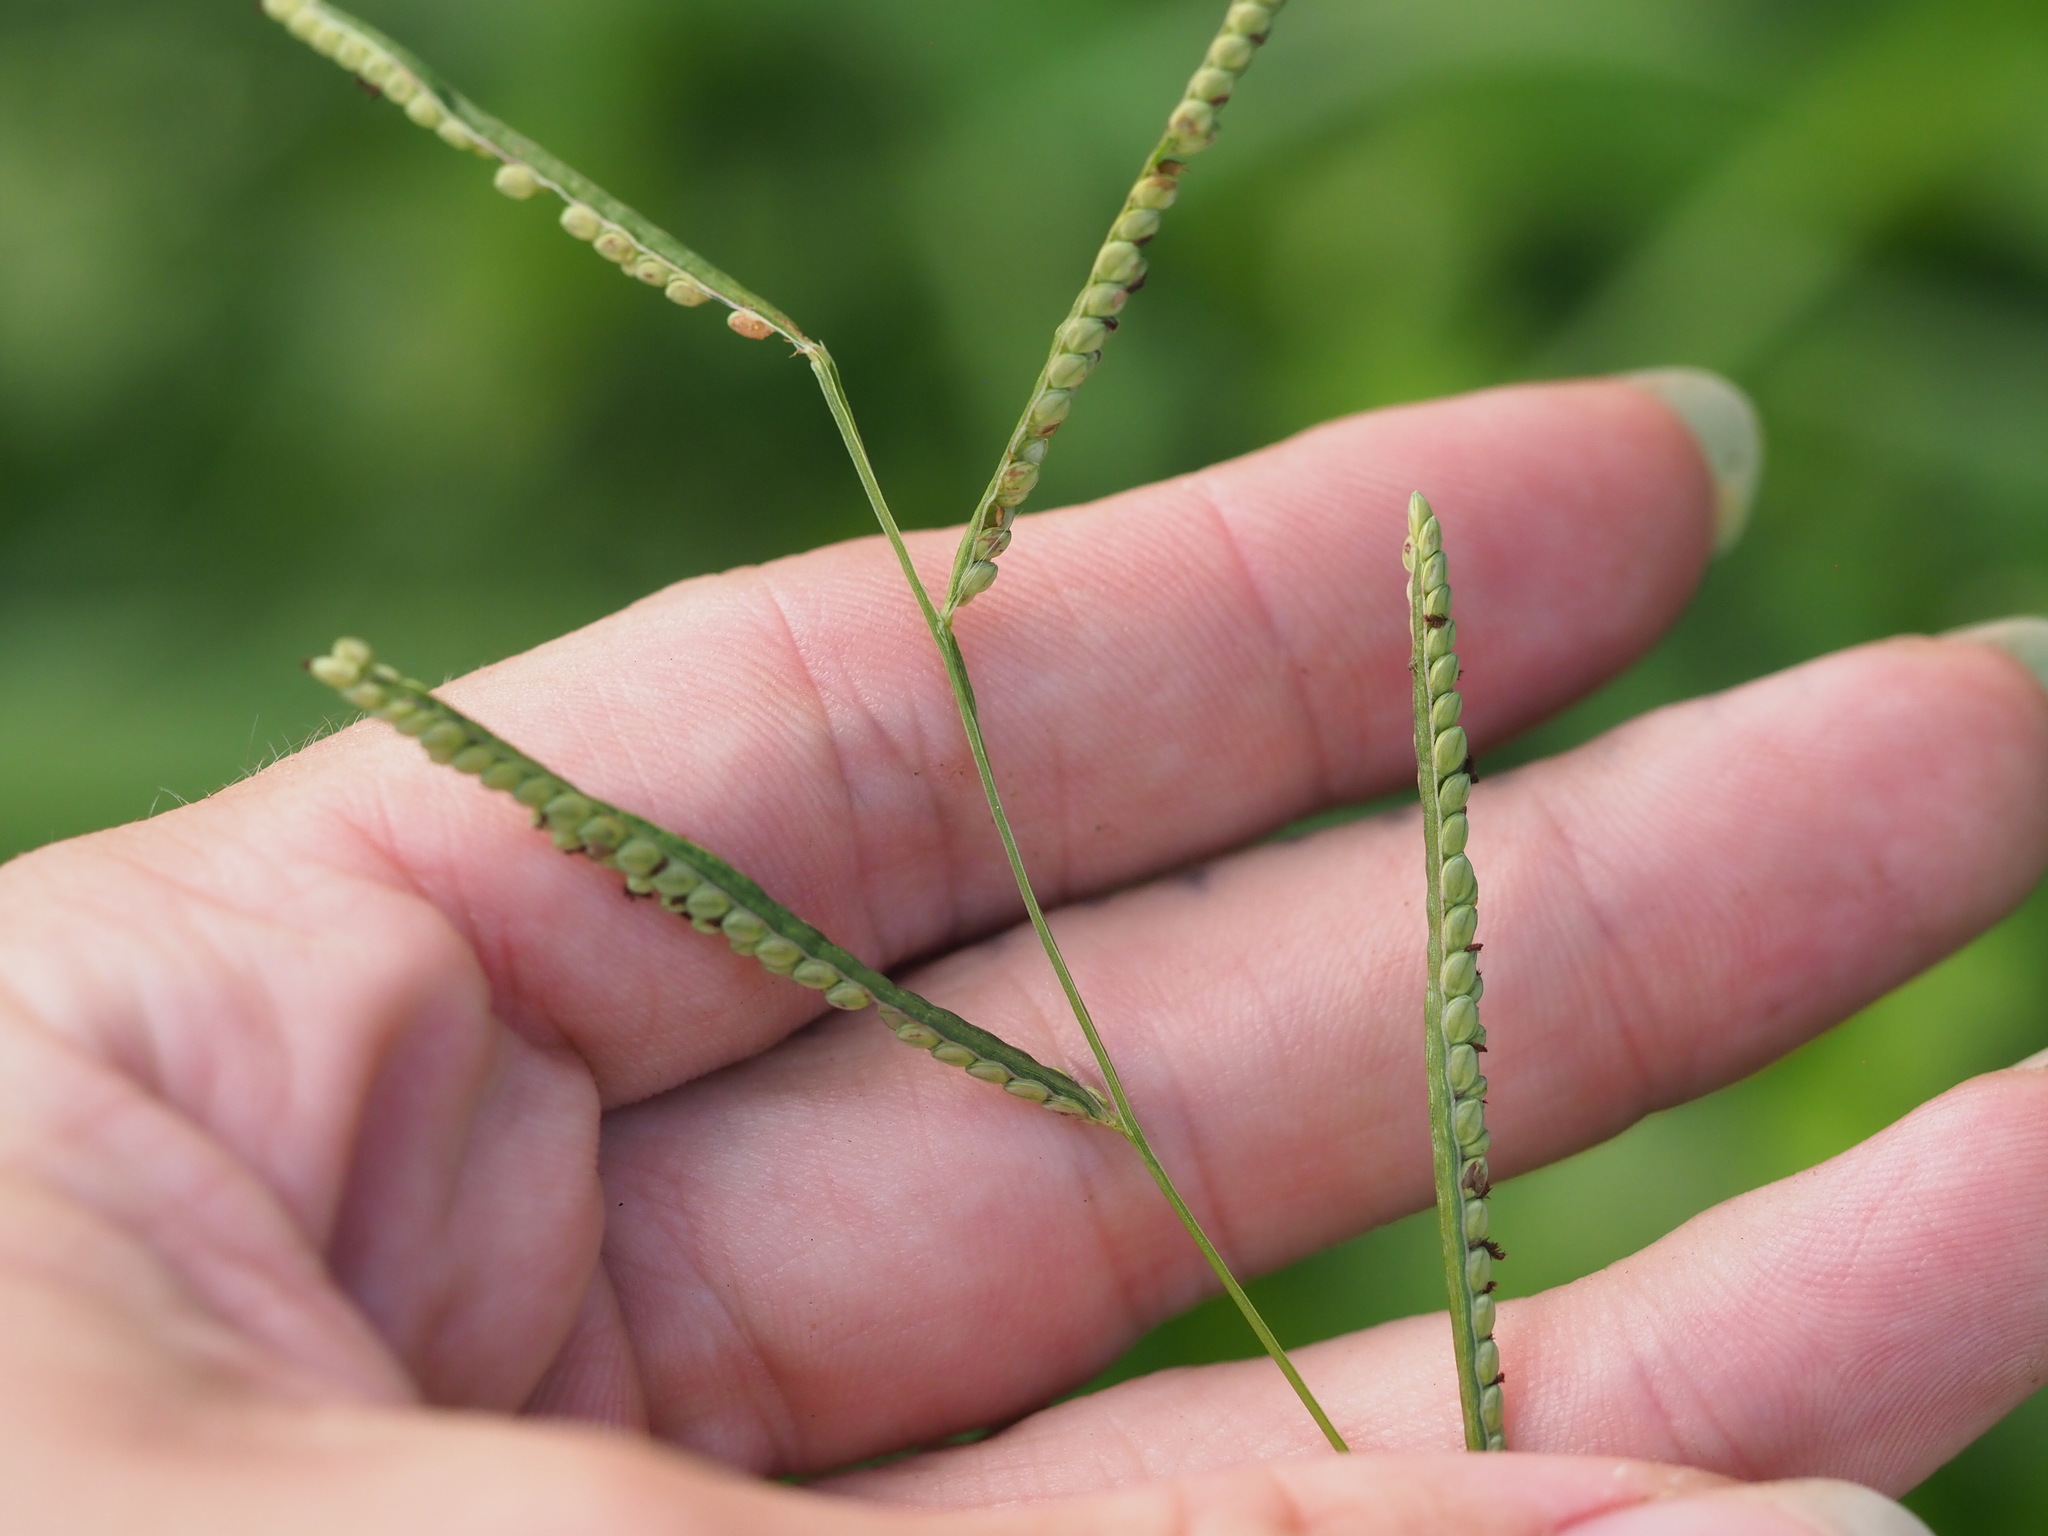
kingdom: Plantae
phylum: Tracheophyta
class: Liliopsida
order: Poales
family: Poaceae
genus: Paspalum
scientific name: Paspalum scrobiculatum
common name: Kodo millet
